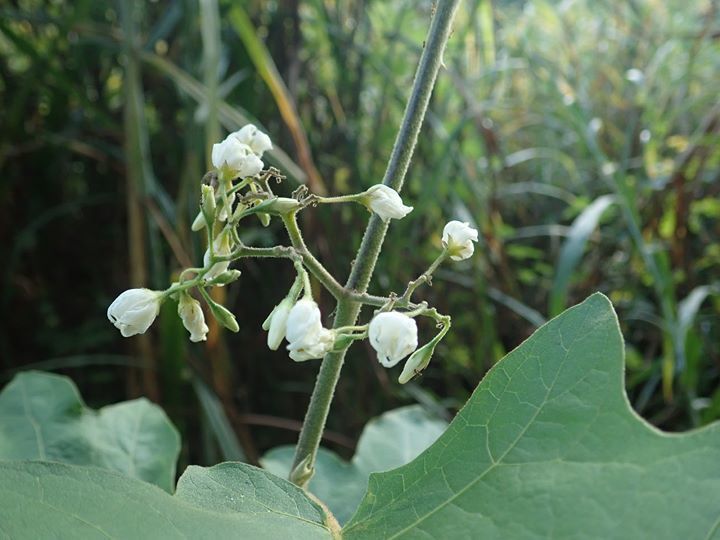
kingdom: Plantae
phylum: Tracheophyta
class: Magnoliopsida
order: Solanales
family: Solanaceae
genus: Solanum
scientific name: Solanum torvum
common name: Turkey berry
